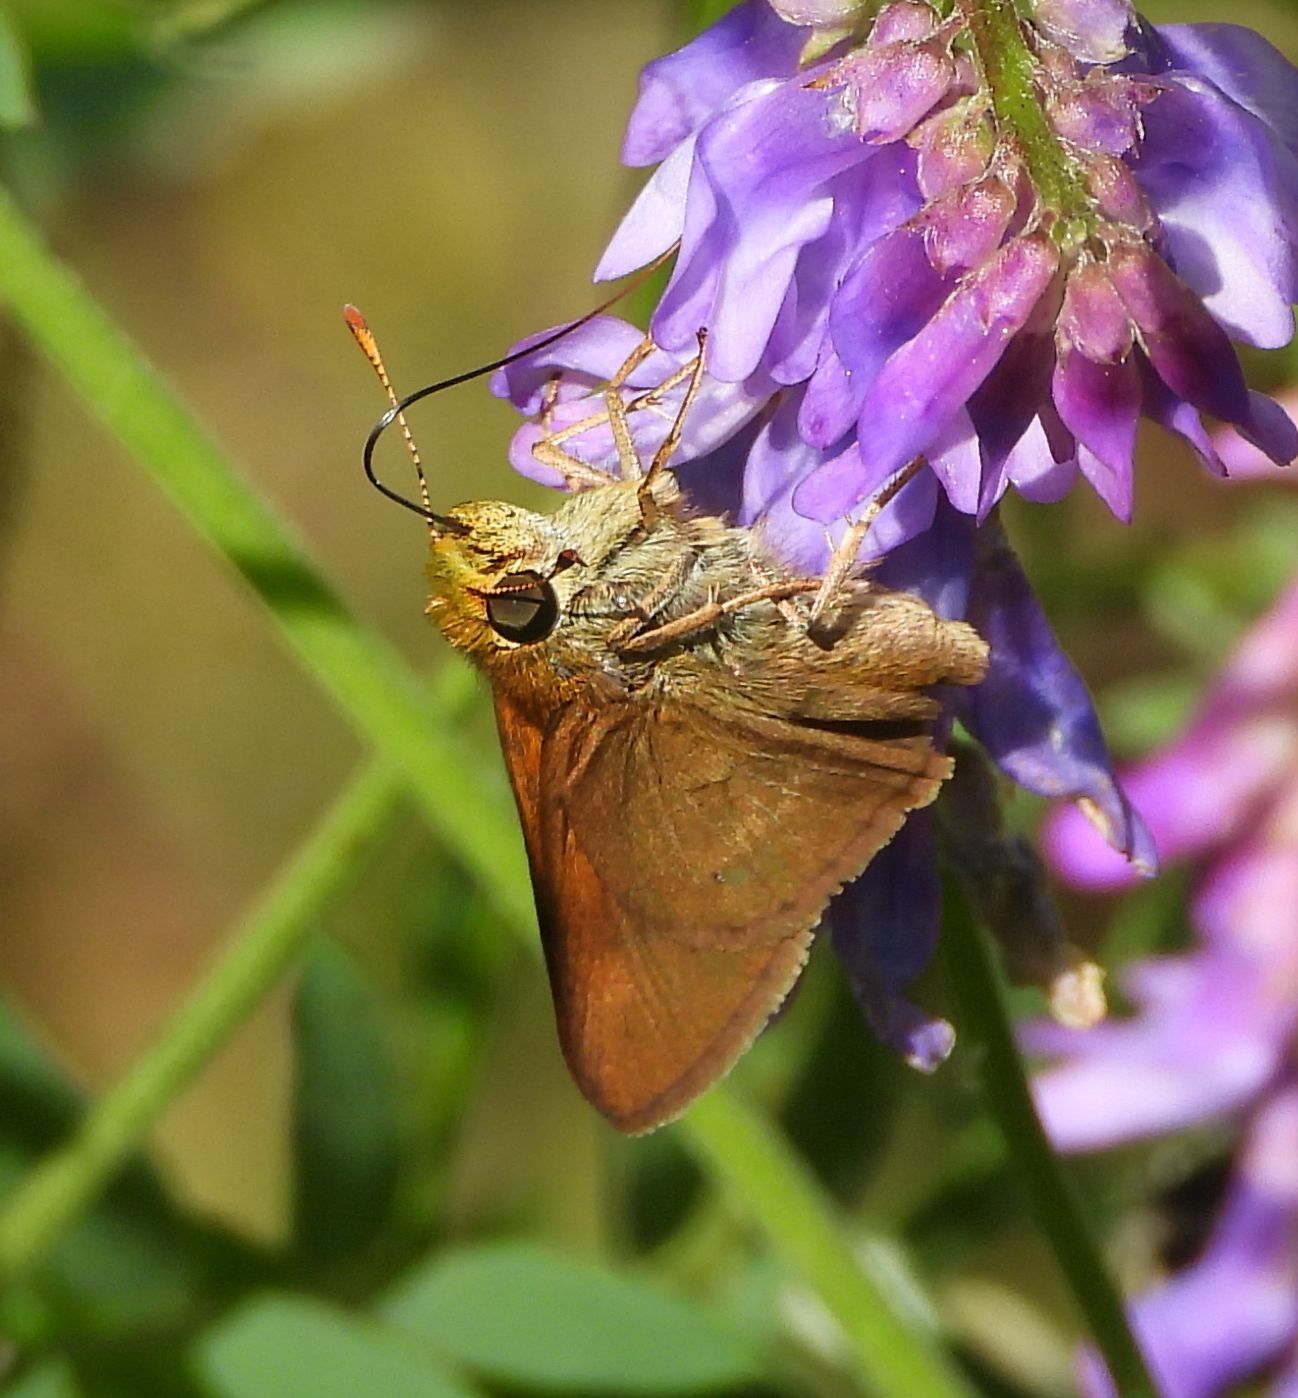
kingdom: Animalia
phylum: Arthropoda
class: Insecta
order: Lepidoptera
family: Hesperiidae
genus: Euphyes
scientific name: Euphyes vestris
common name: Dun skipper
